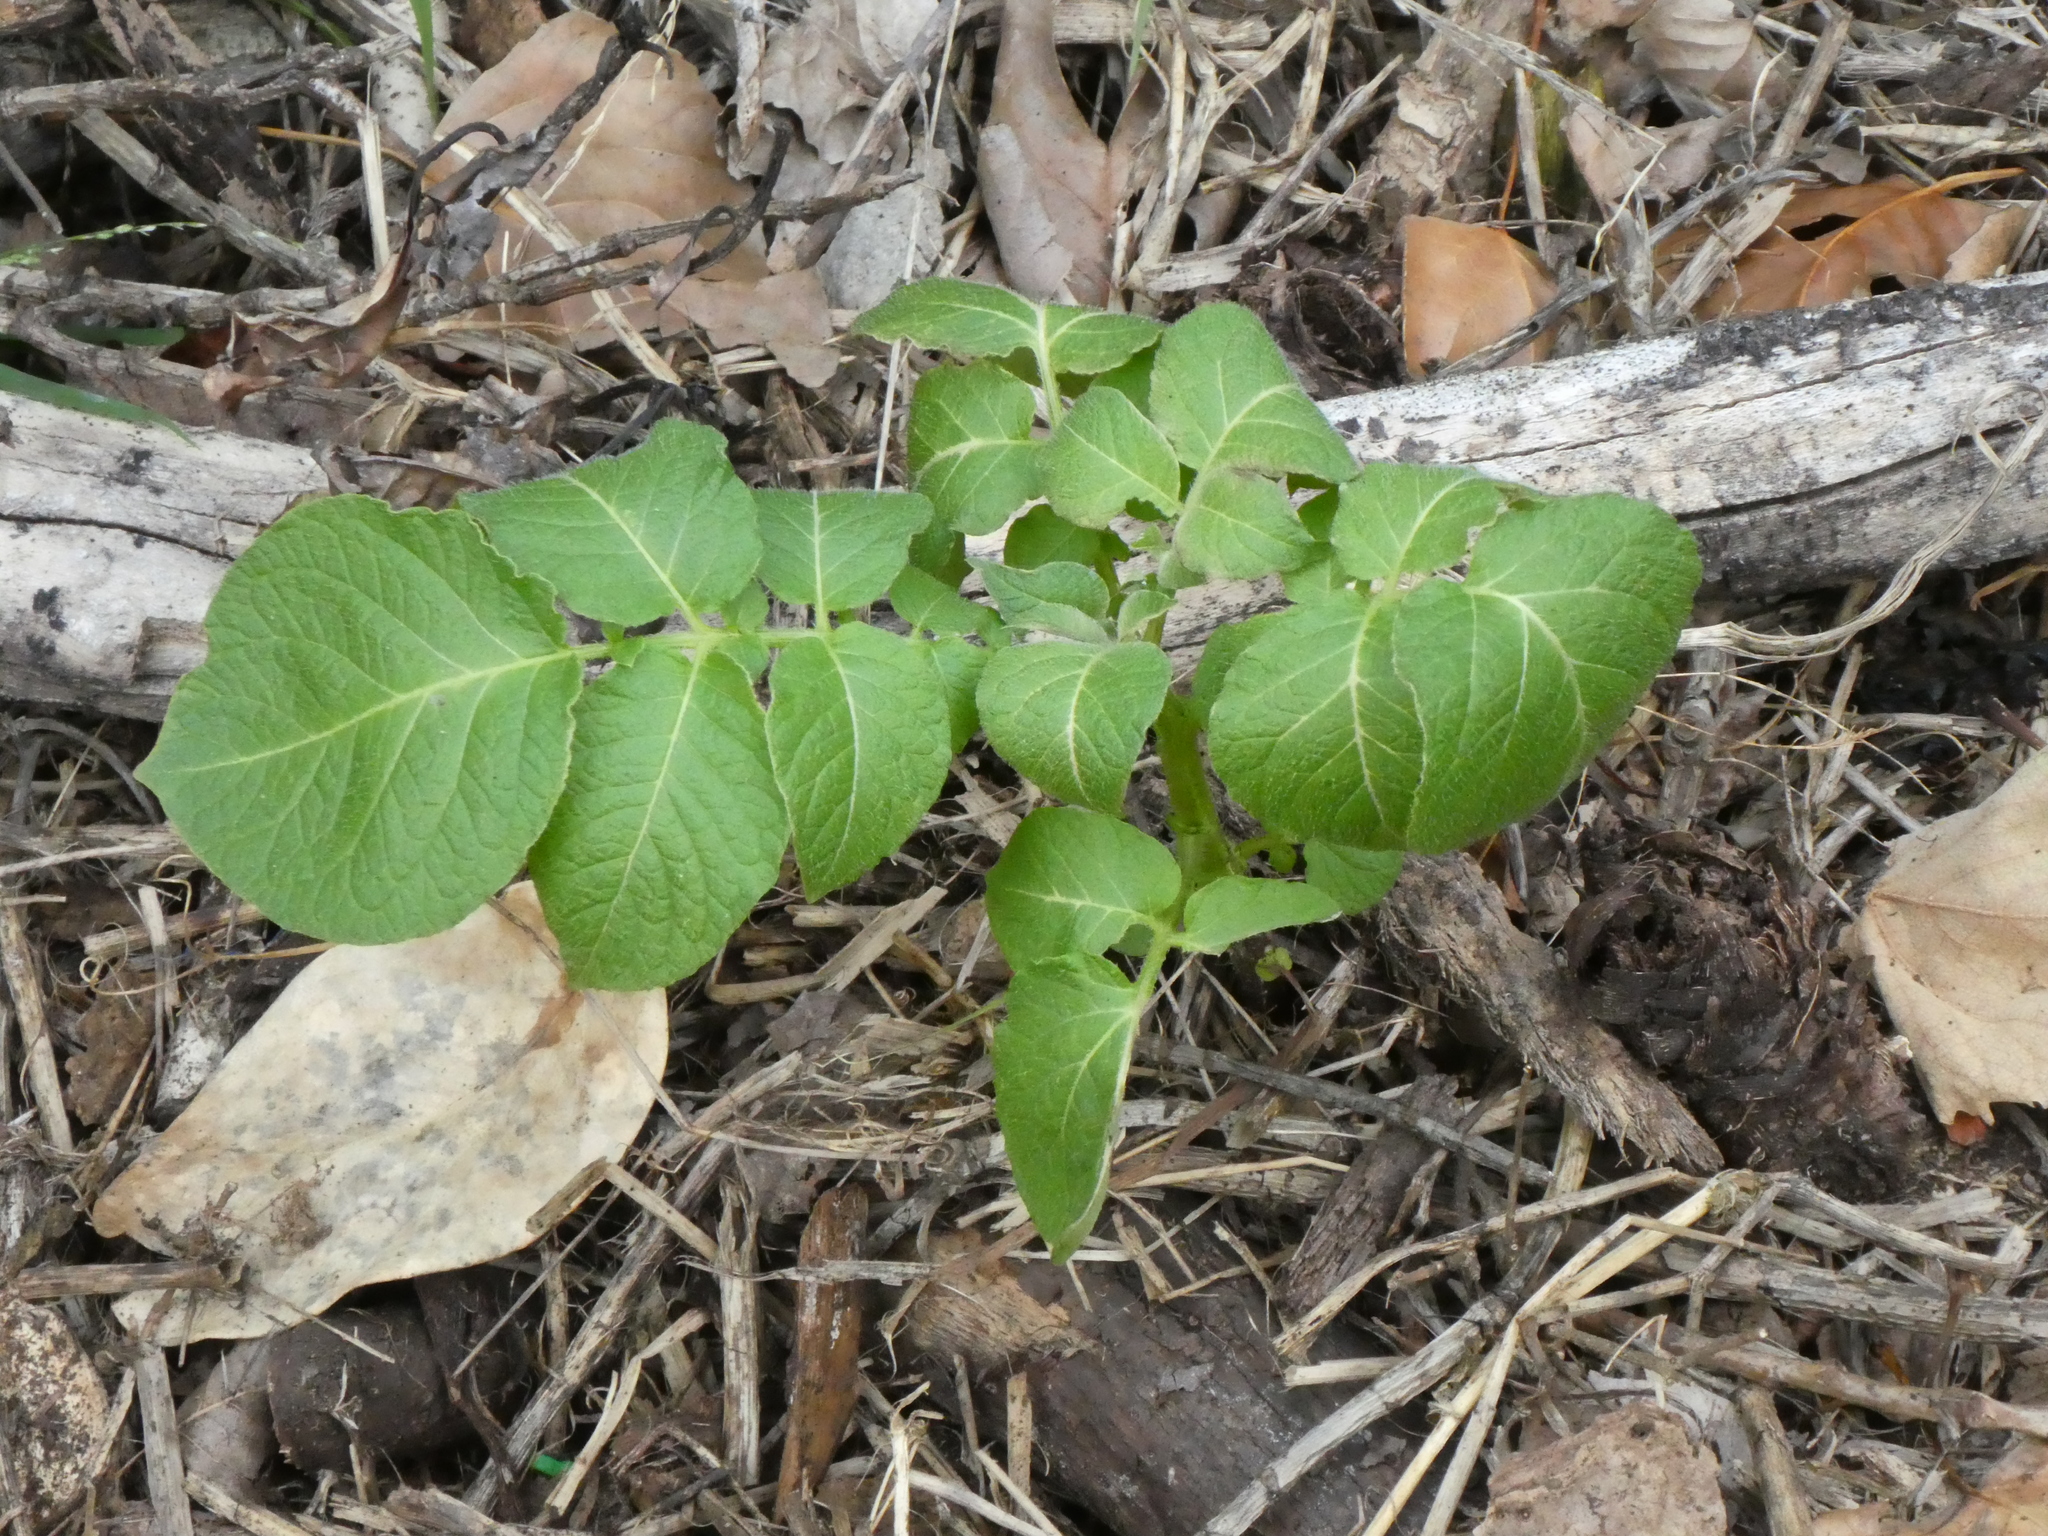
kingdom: Plantae
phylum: Tracheophyta
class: Magnoliopsida
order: Solanales
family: Solanaceae
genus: Solanum
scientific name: Solanum tuberosum
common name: Potato
